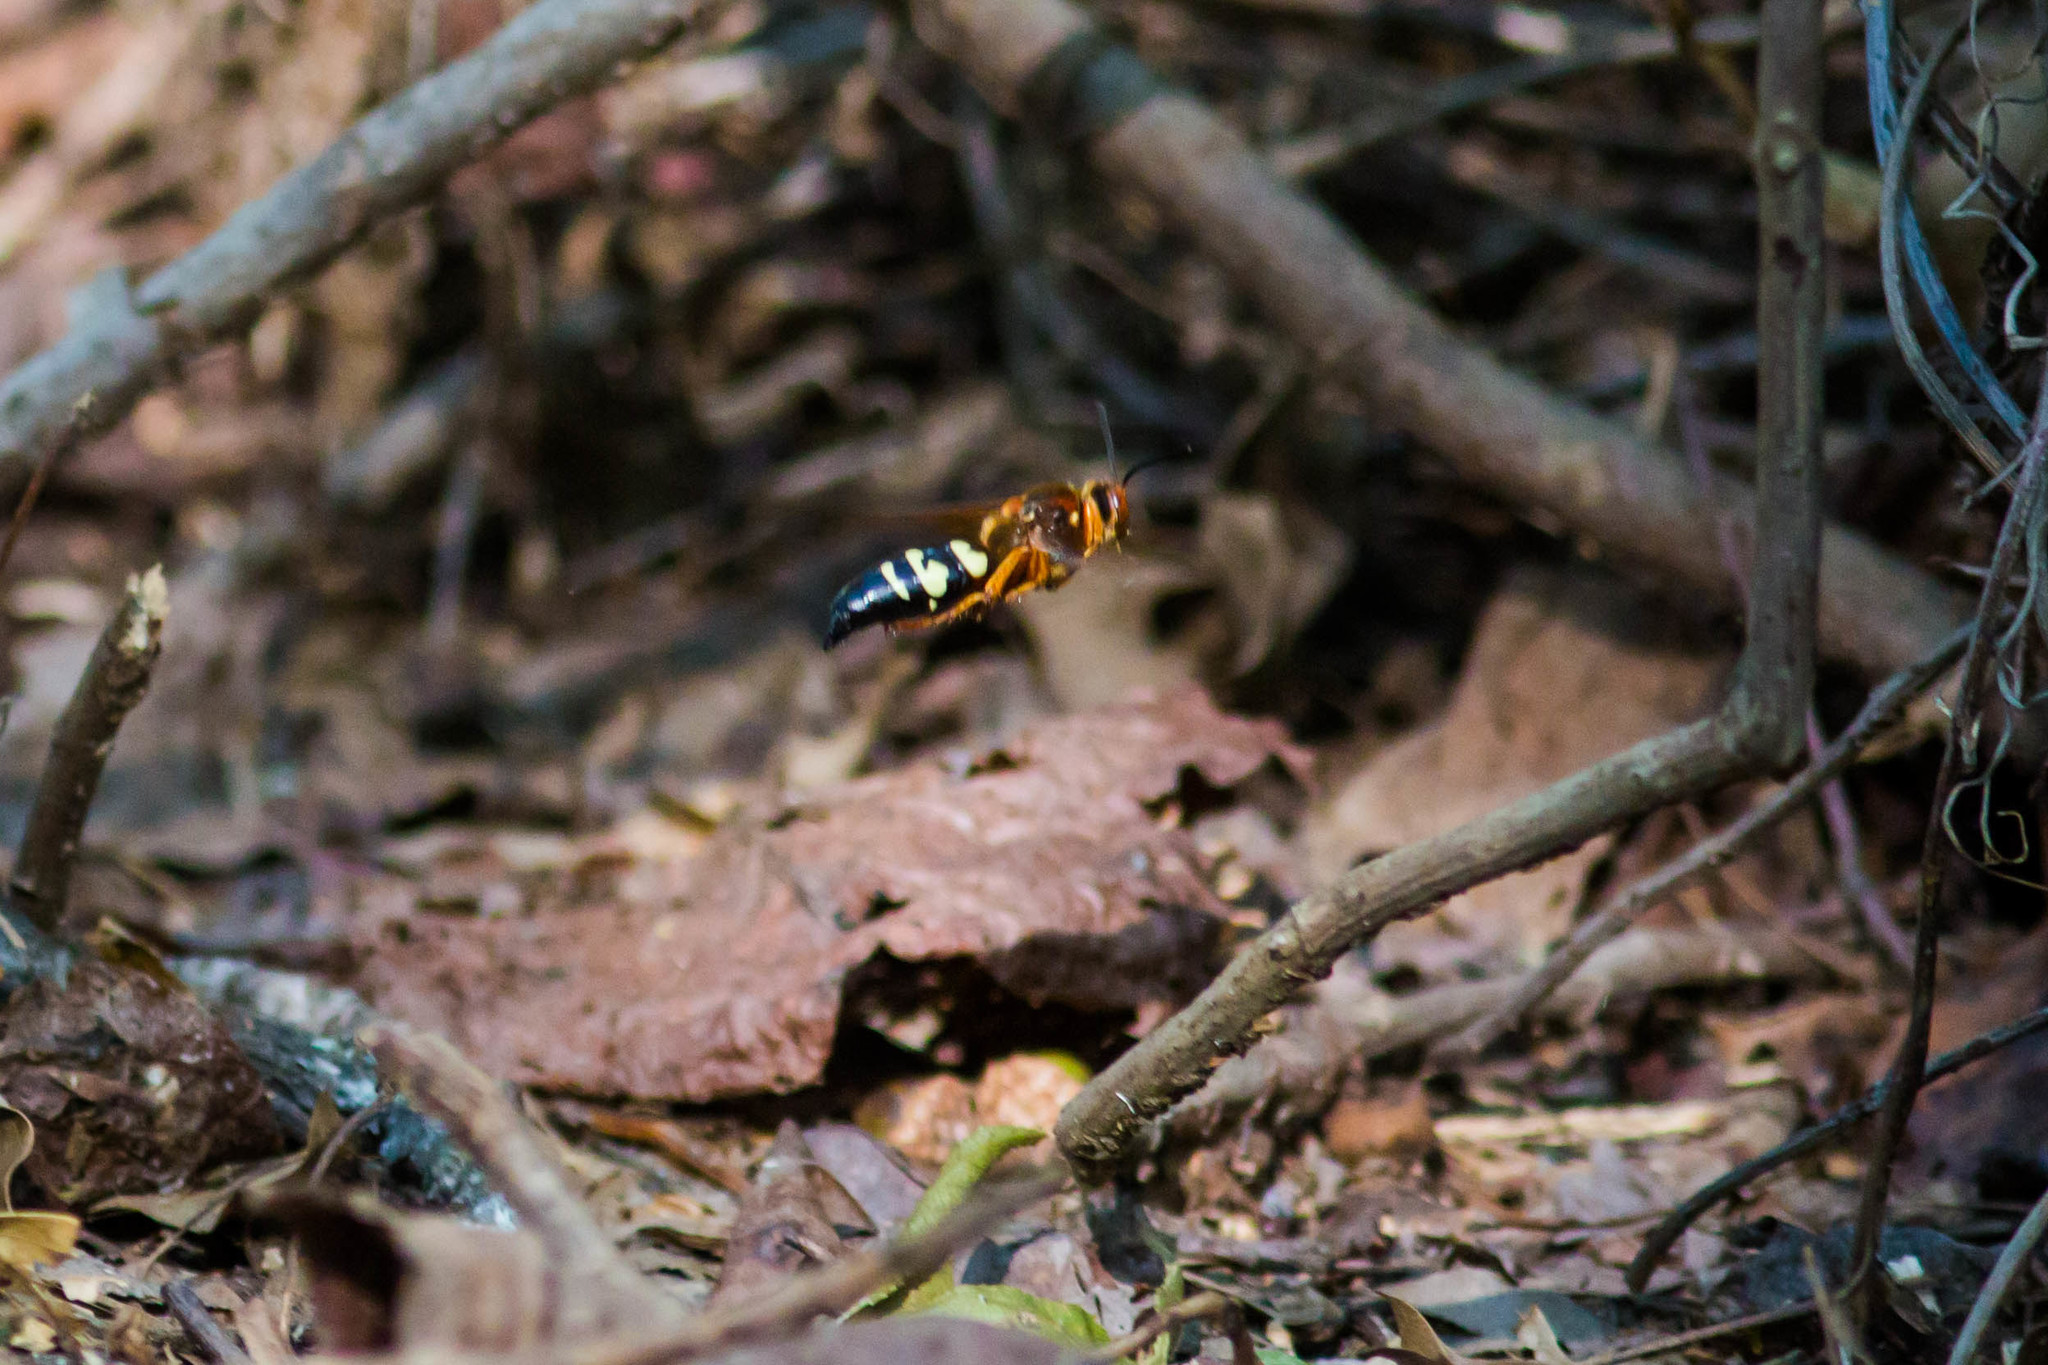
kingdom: Animalia
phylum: Arthropoda
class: Insecta
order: Hymenoptera
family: Crabronidae
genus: Sphecius
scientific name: Sphecius speciosus
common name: Cicada killer
